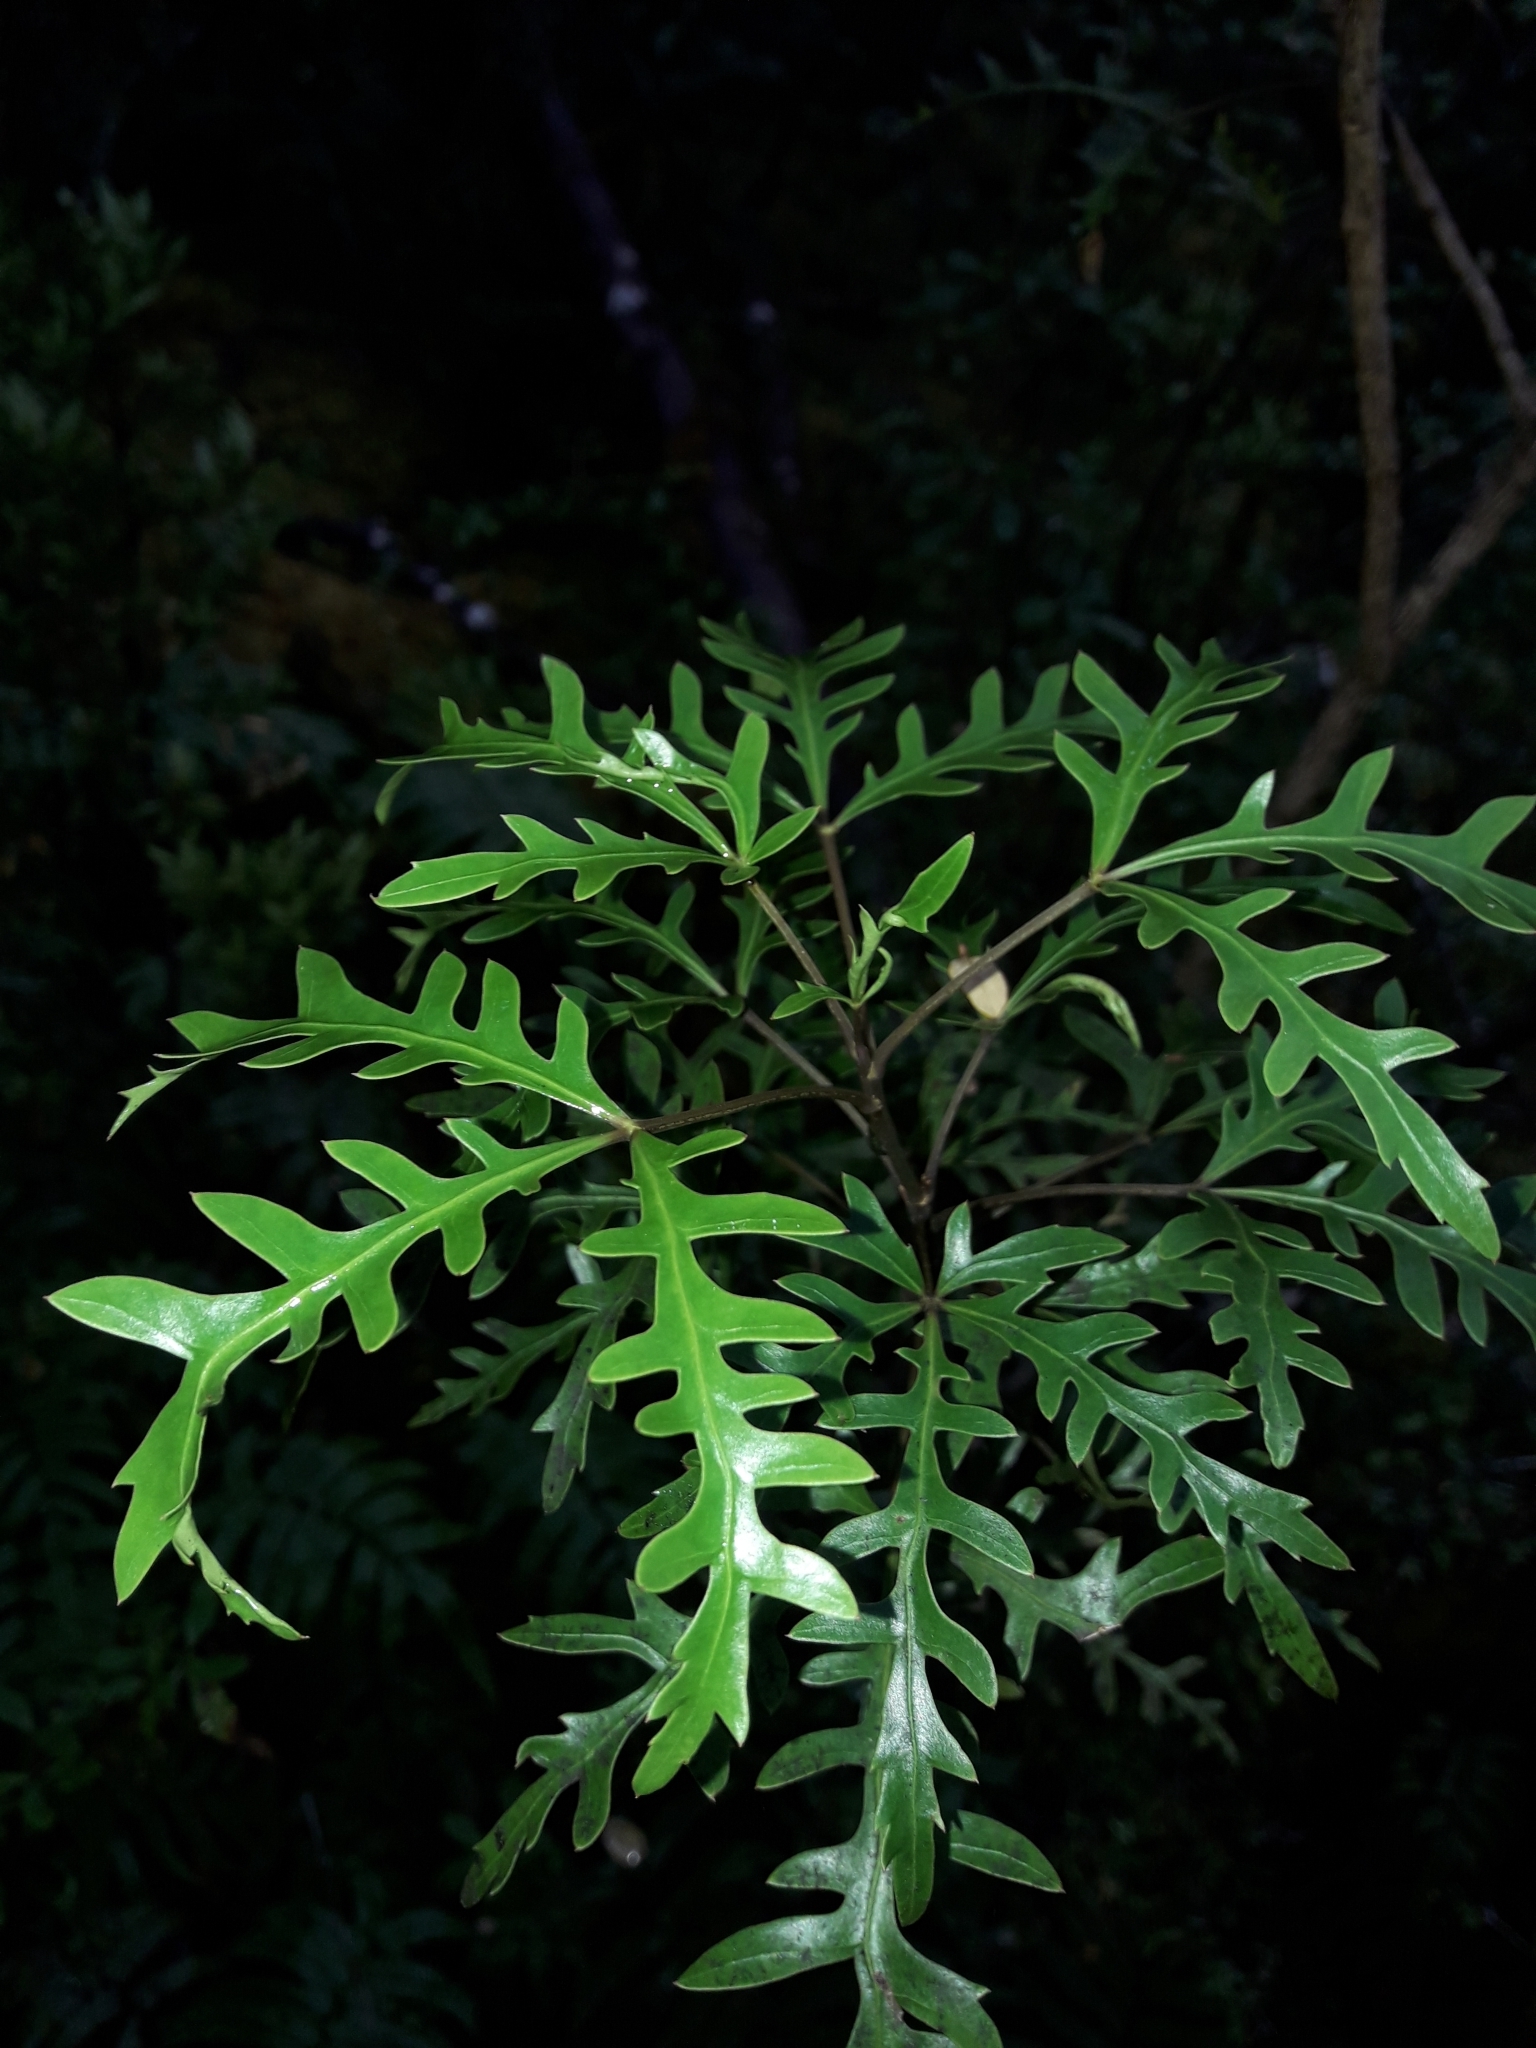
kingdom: Plantae
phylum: Tracheophyta
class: Magnoliopsida
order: Apiales
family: Araliaceae
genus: Raukaua
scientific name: Raukaua simplex
